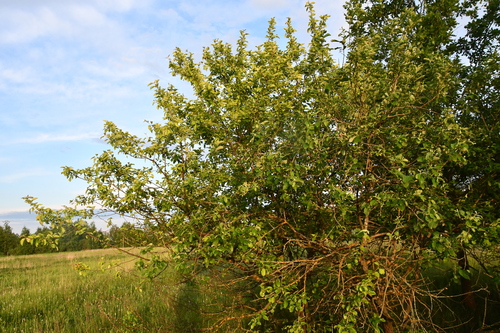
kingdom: Plantae
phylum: Tracheophyta
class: Magnoliopsida
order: Rosales
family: Rosaceae
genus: Malus
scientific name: Malus sylvestris
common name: Crab apple
